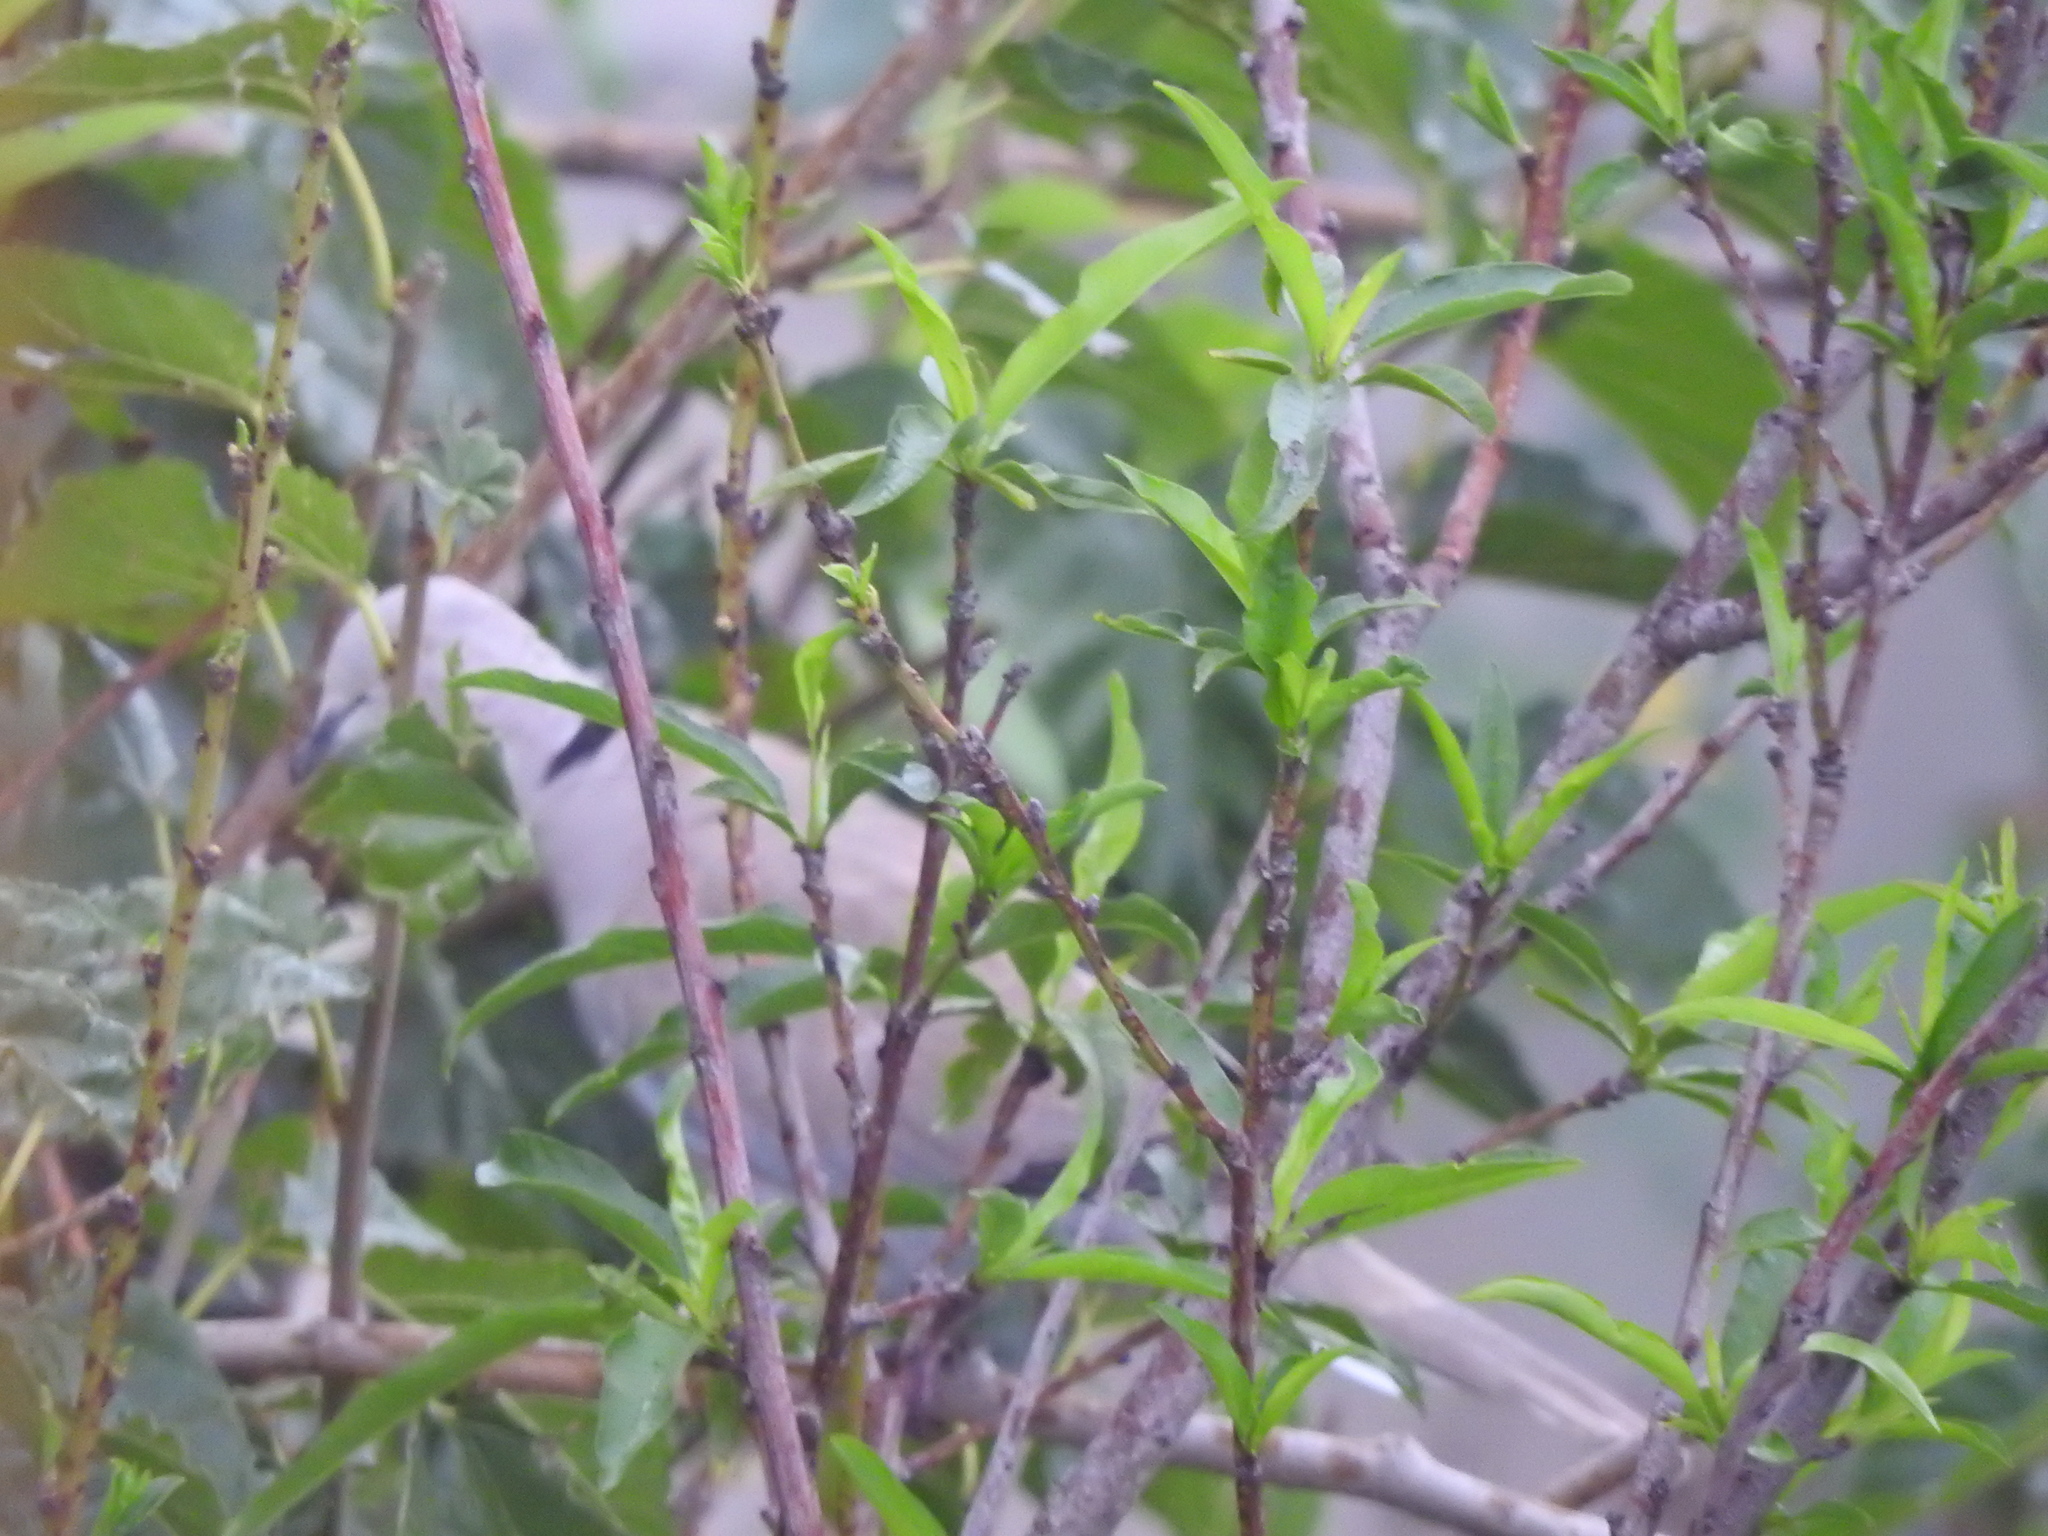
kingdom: Animalia
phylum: Chordata
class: Aves
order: Columbiformes
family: Columbidae
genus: Streptopelia
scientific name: Streptopelia decaocto
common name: Eurasian collared dove
